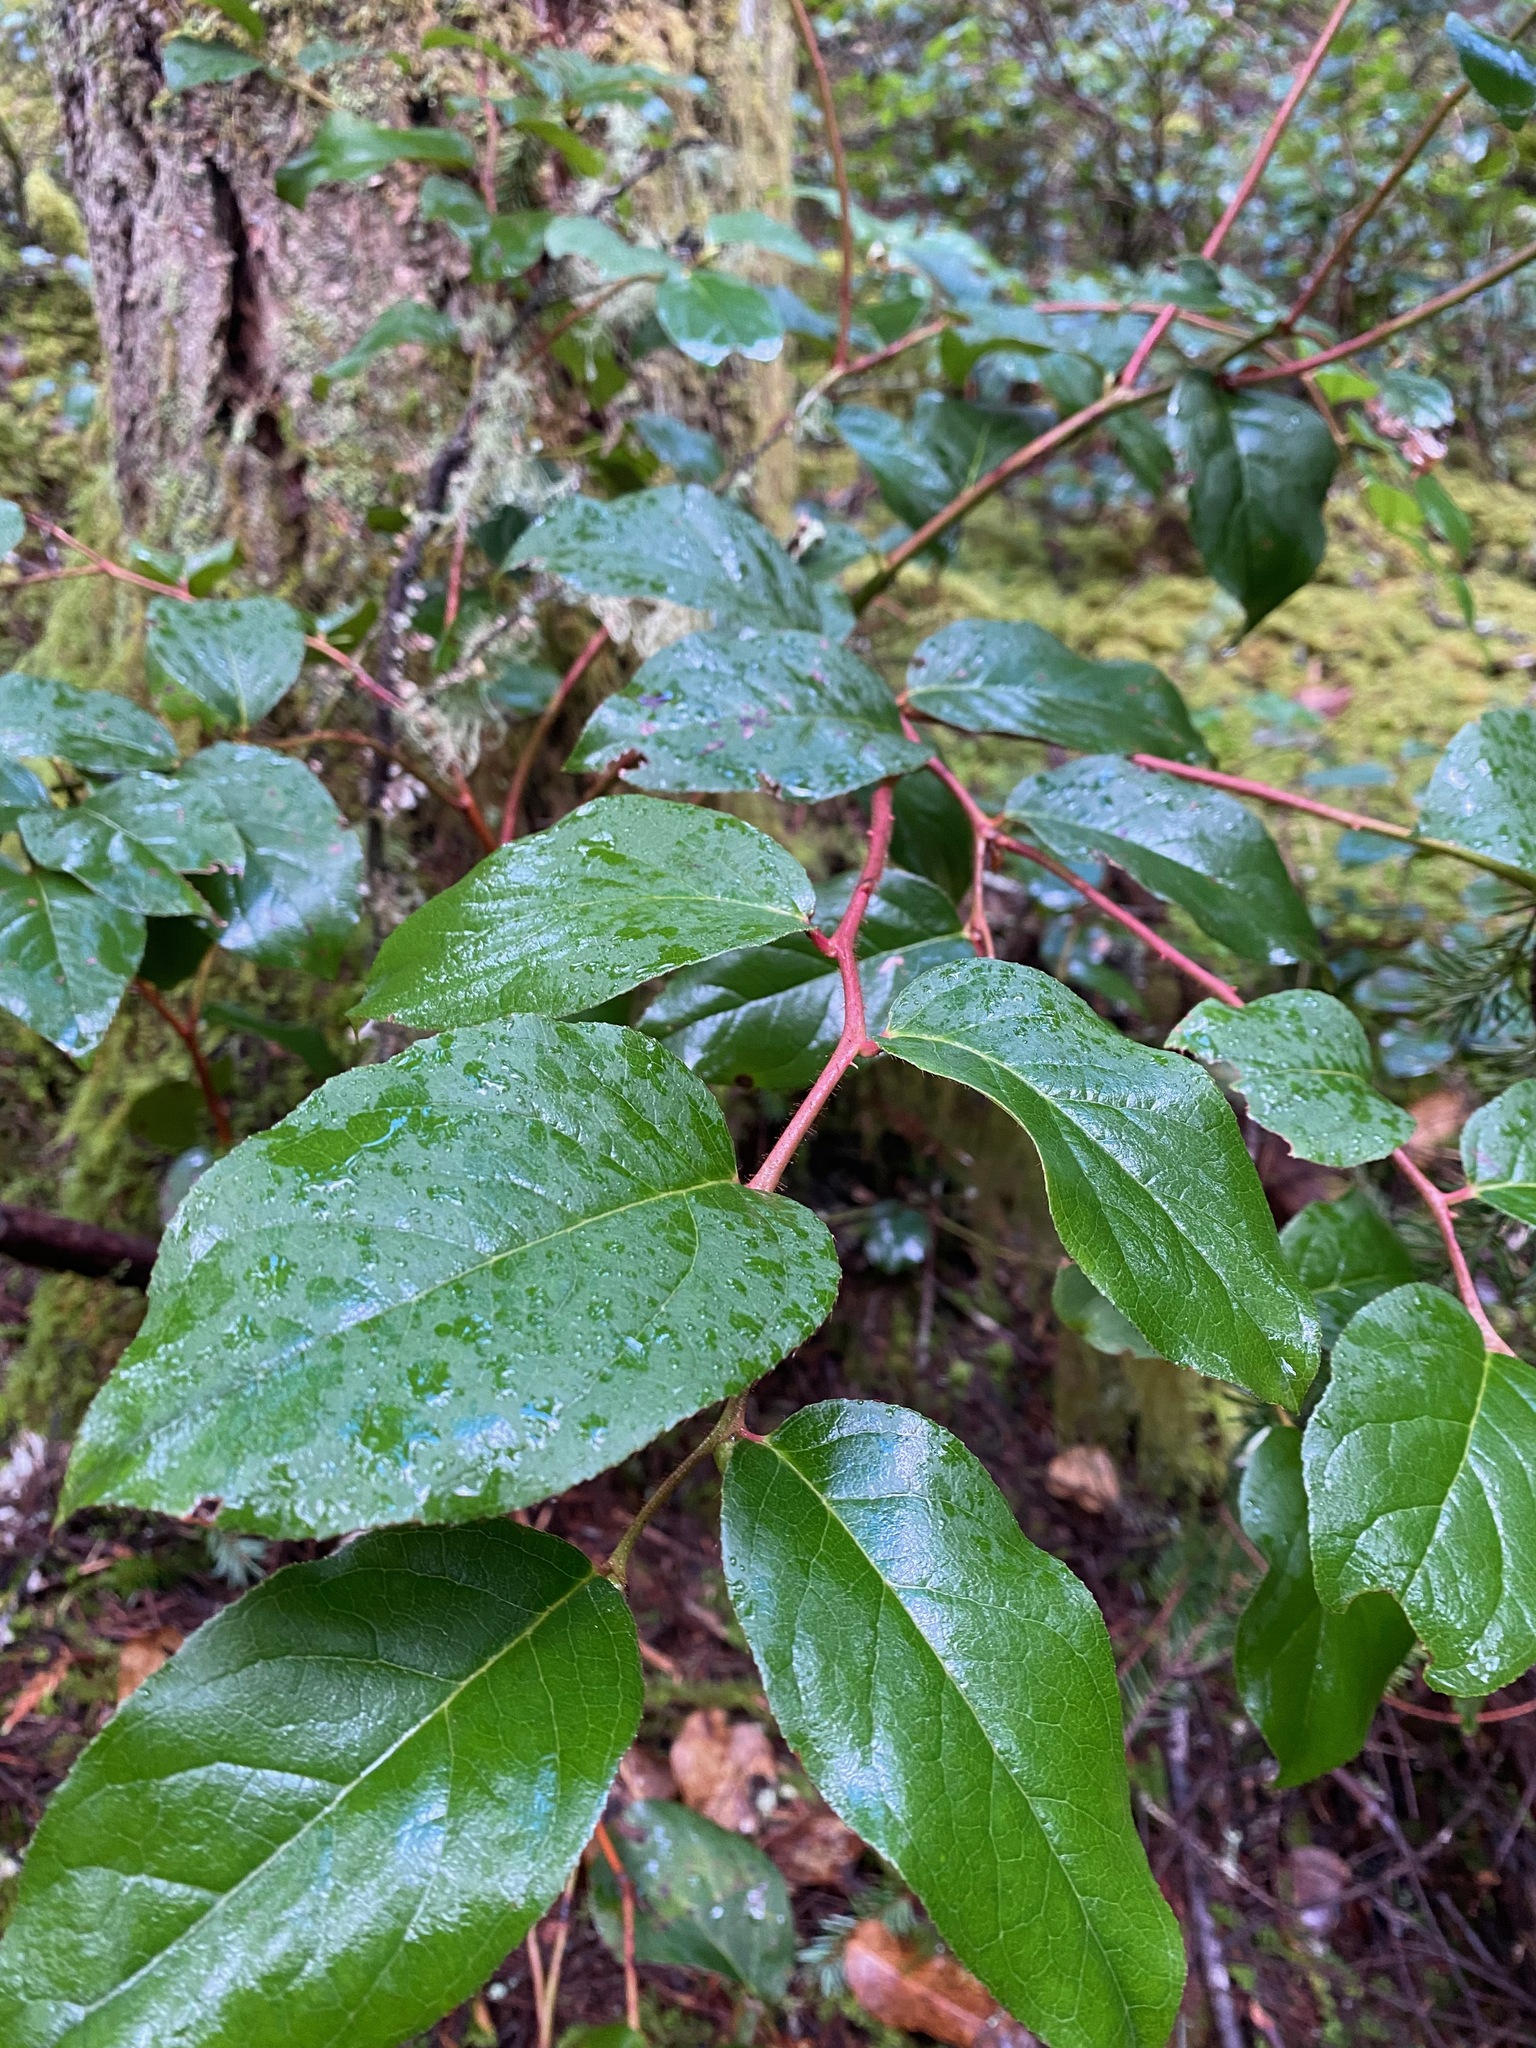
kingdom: Plantae
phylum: Tracheophyta
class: Magnoliopsida
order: Ericales
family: Ericaceae
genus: Gaultheria
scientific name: Gaultheria shallon
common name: Shallon
